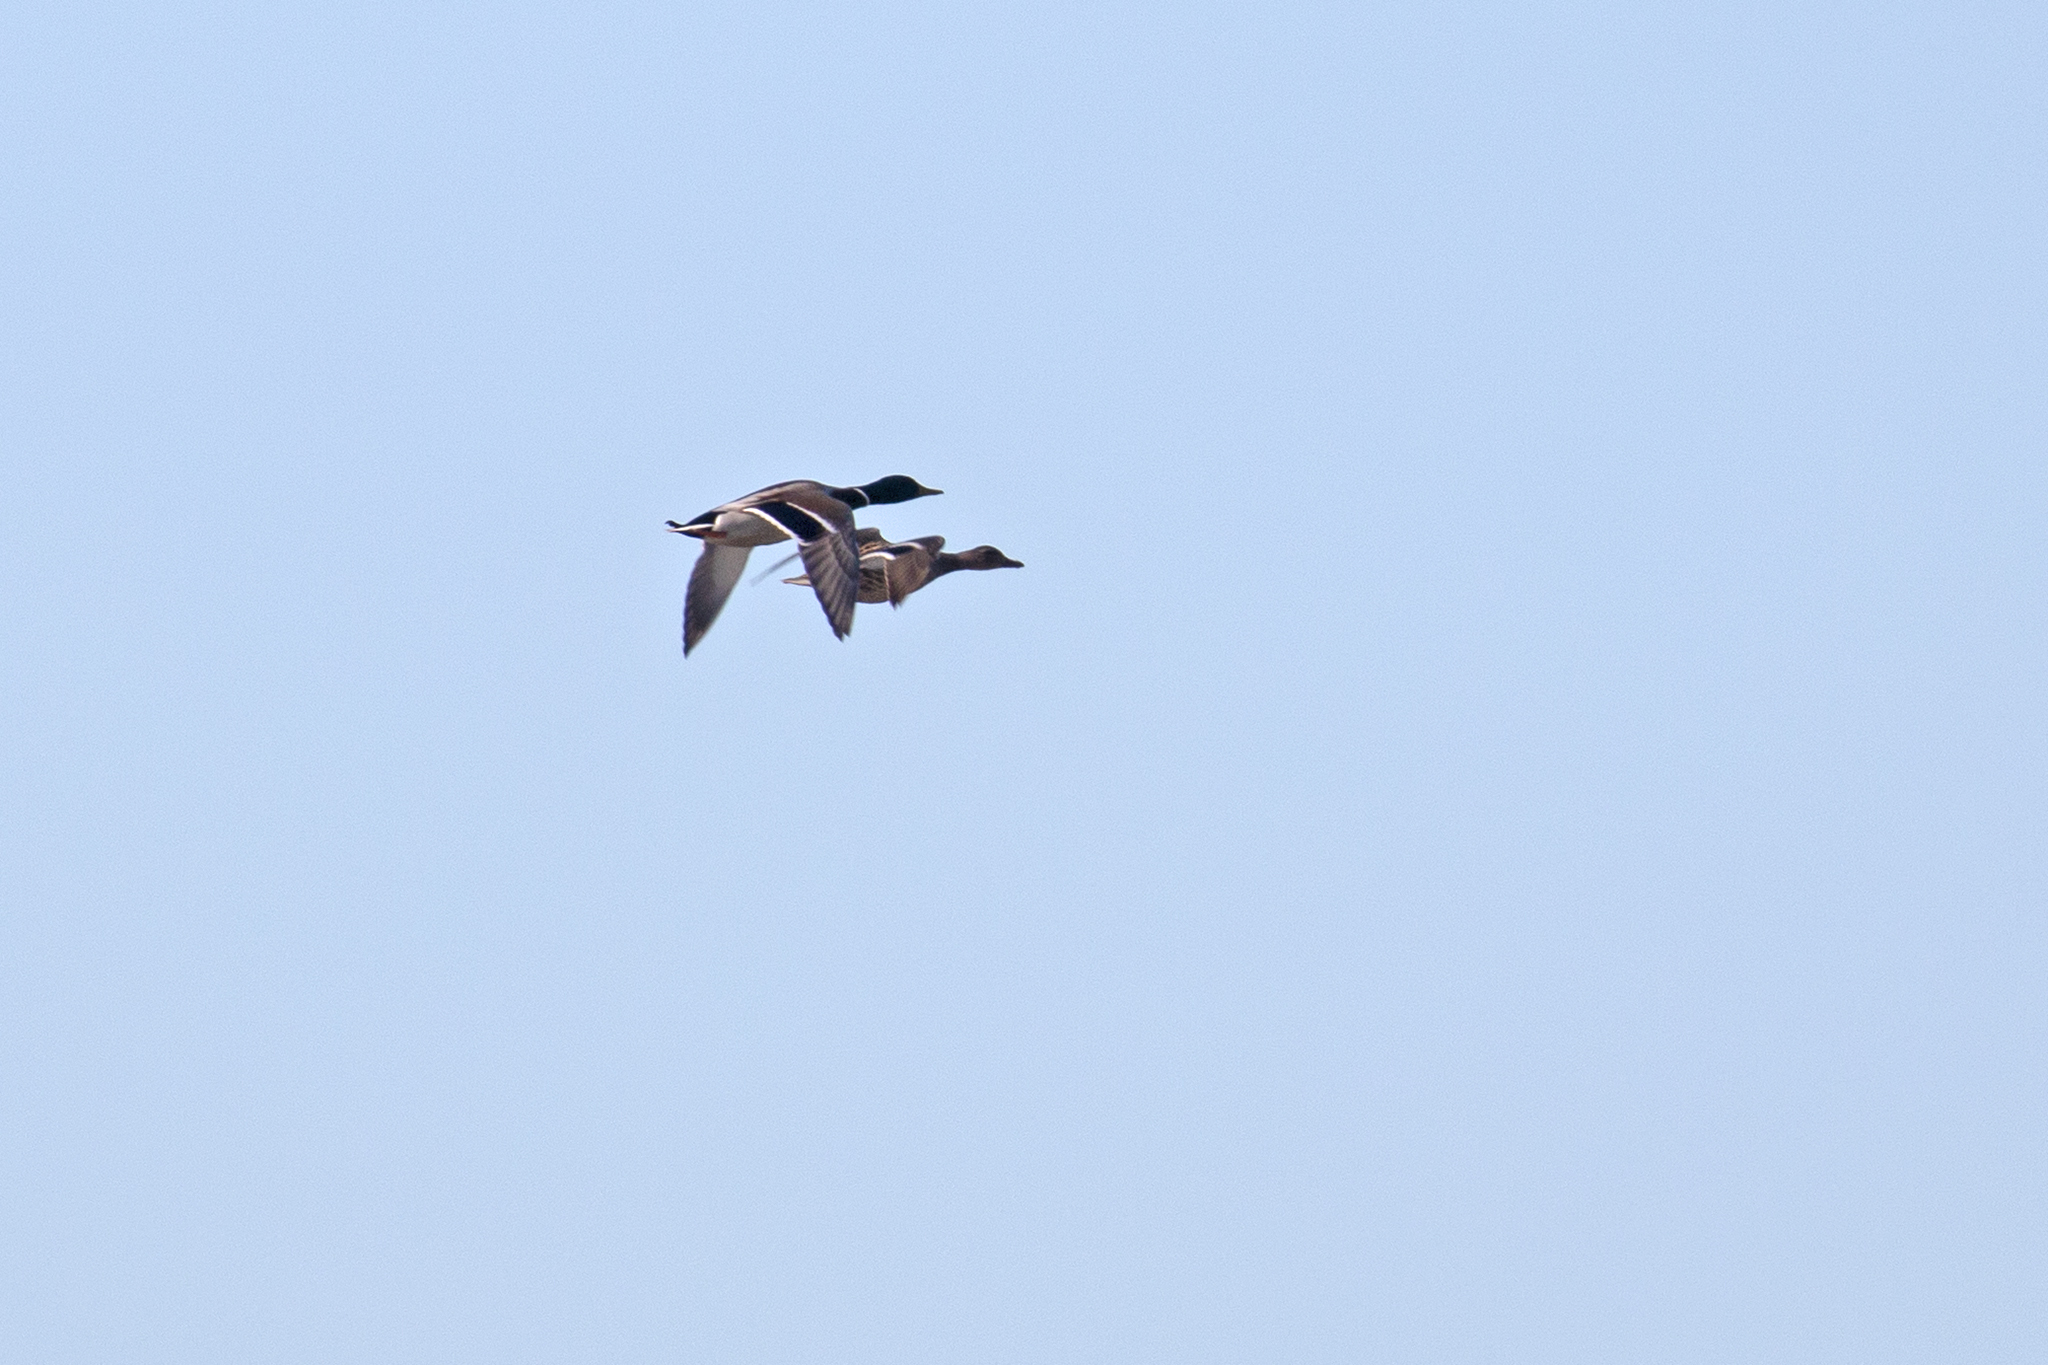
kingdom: Animalia
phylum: Chordata
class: Aves
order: Anseriformes
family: Anatidae
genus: Anas
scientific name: Anas platyrhynchos
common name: Mallard
